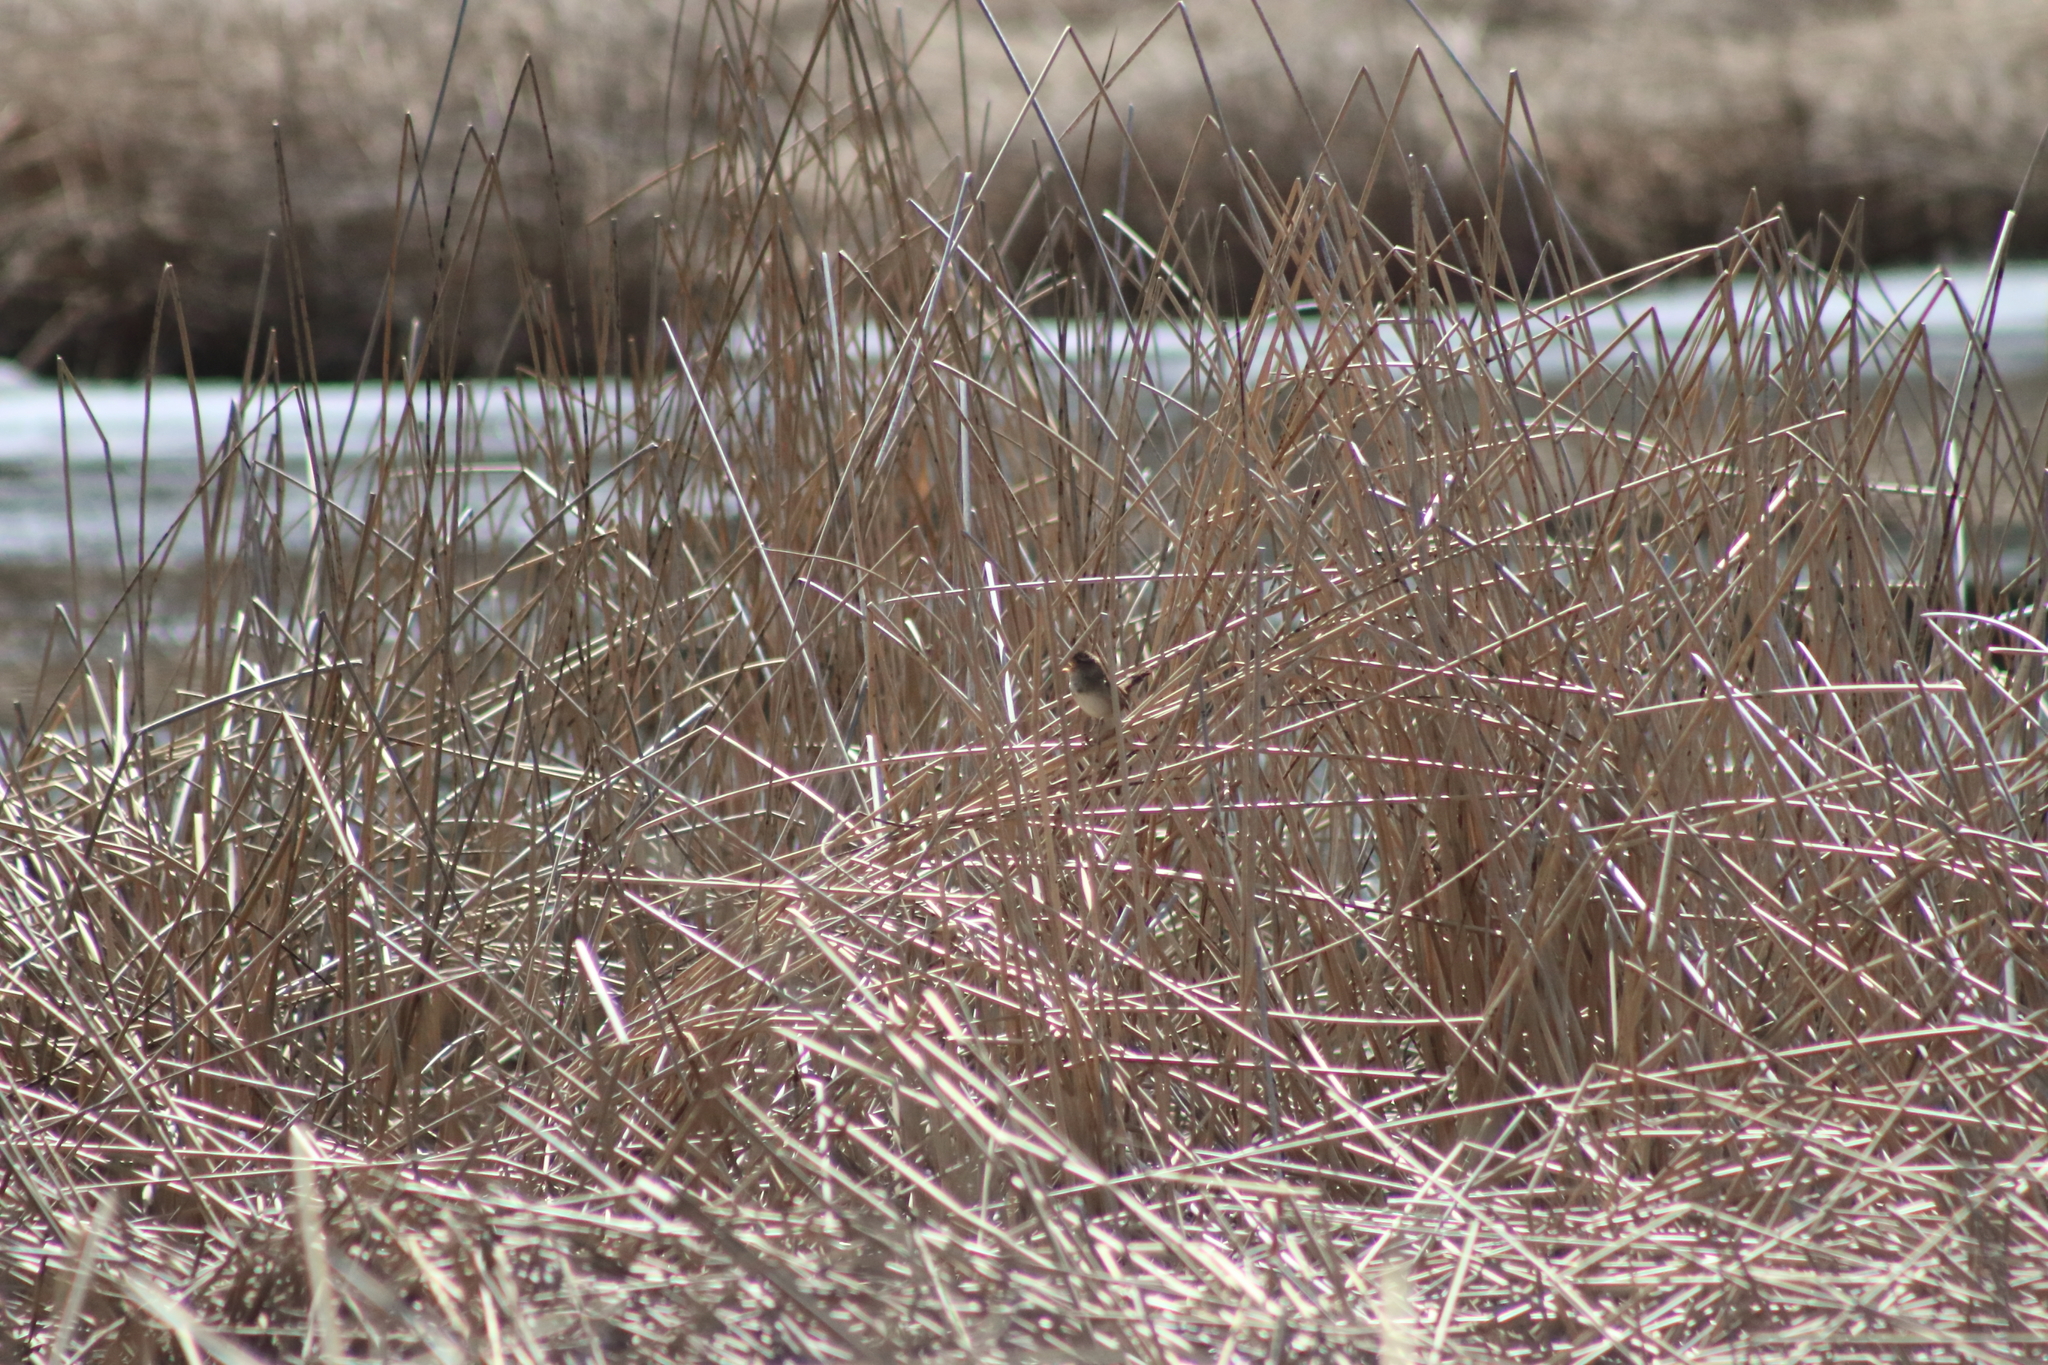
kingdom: Animalia
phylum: Chordata
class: Aves
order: Passeriformes
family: Troglodytidae
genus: Cistothorus
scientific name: Cistothorus palustris
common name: Marsh wren
